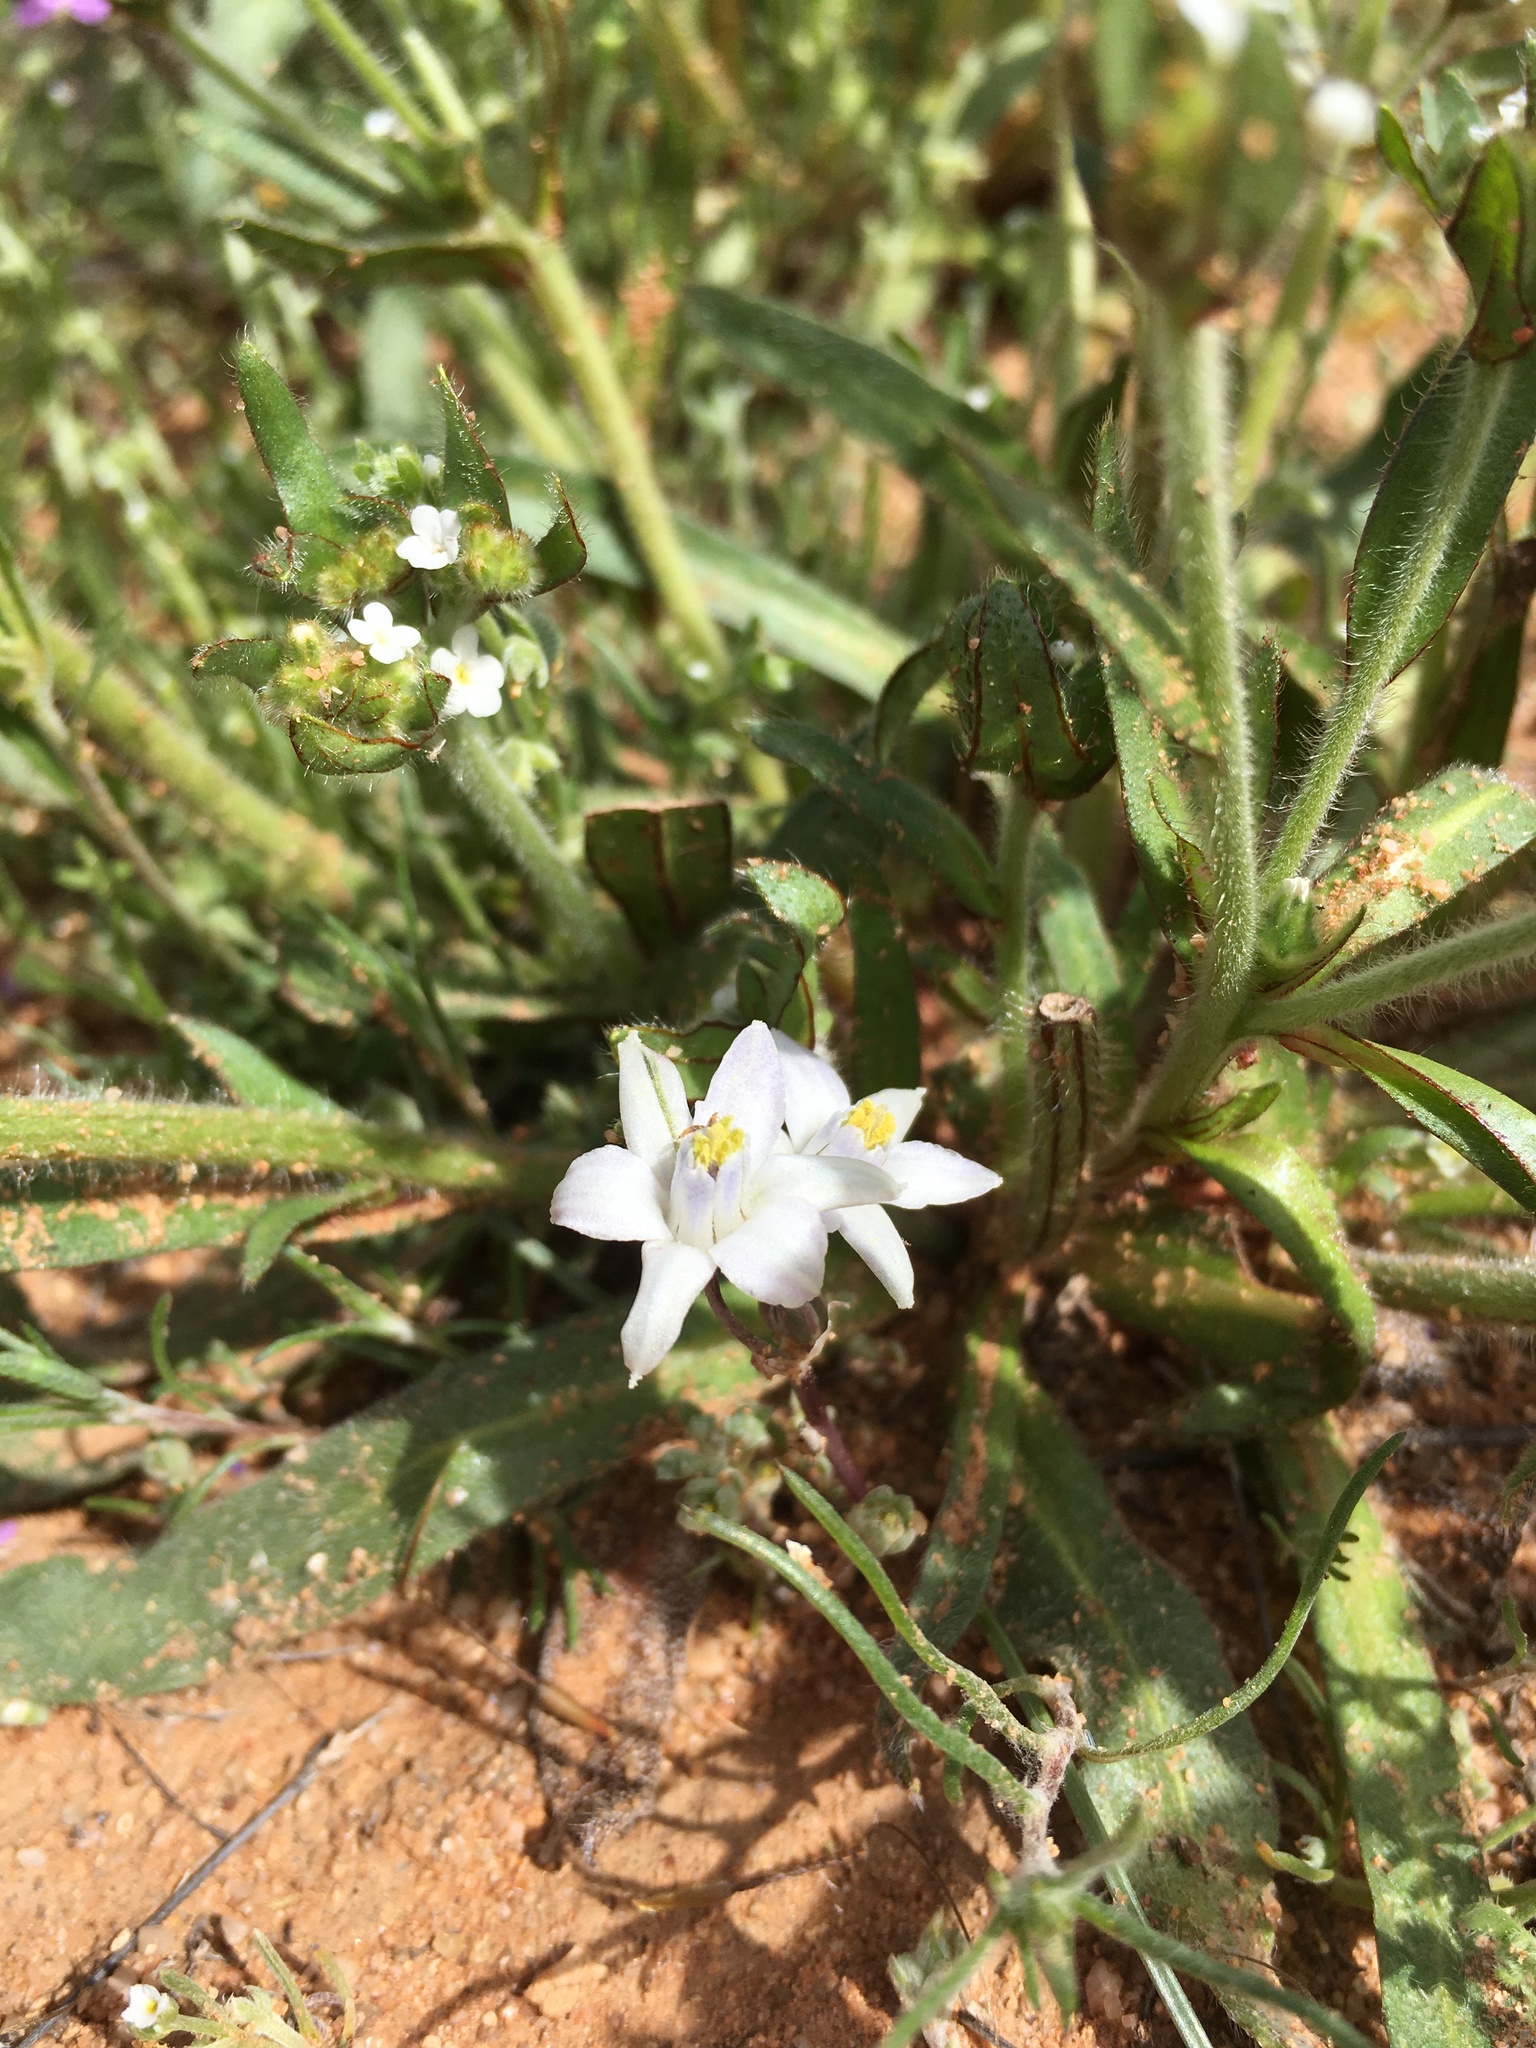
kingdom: Plantae
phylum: Tracheophyta
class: Liliopsida
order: Asparagales
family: Asparagaceae
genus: Muilla
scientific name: Muilla lordsburgana
